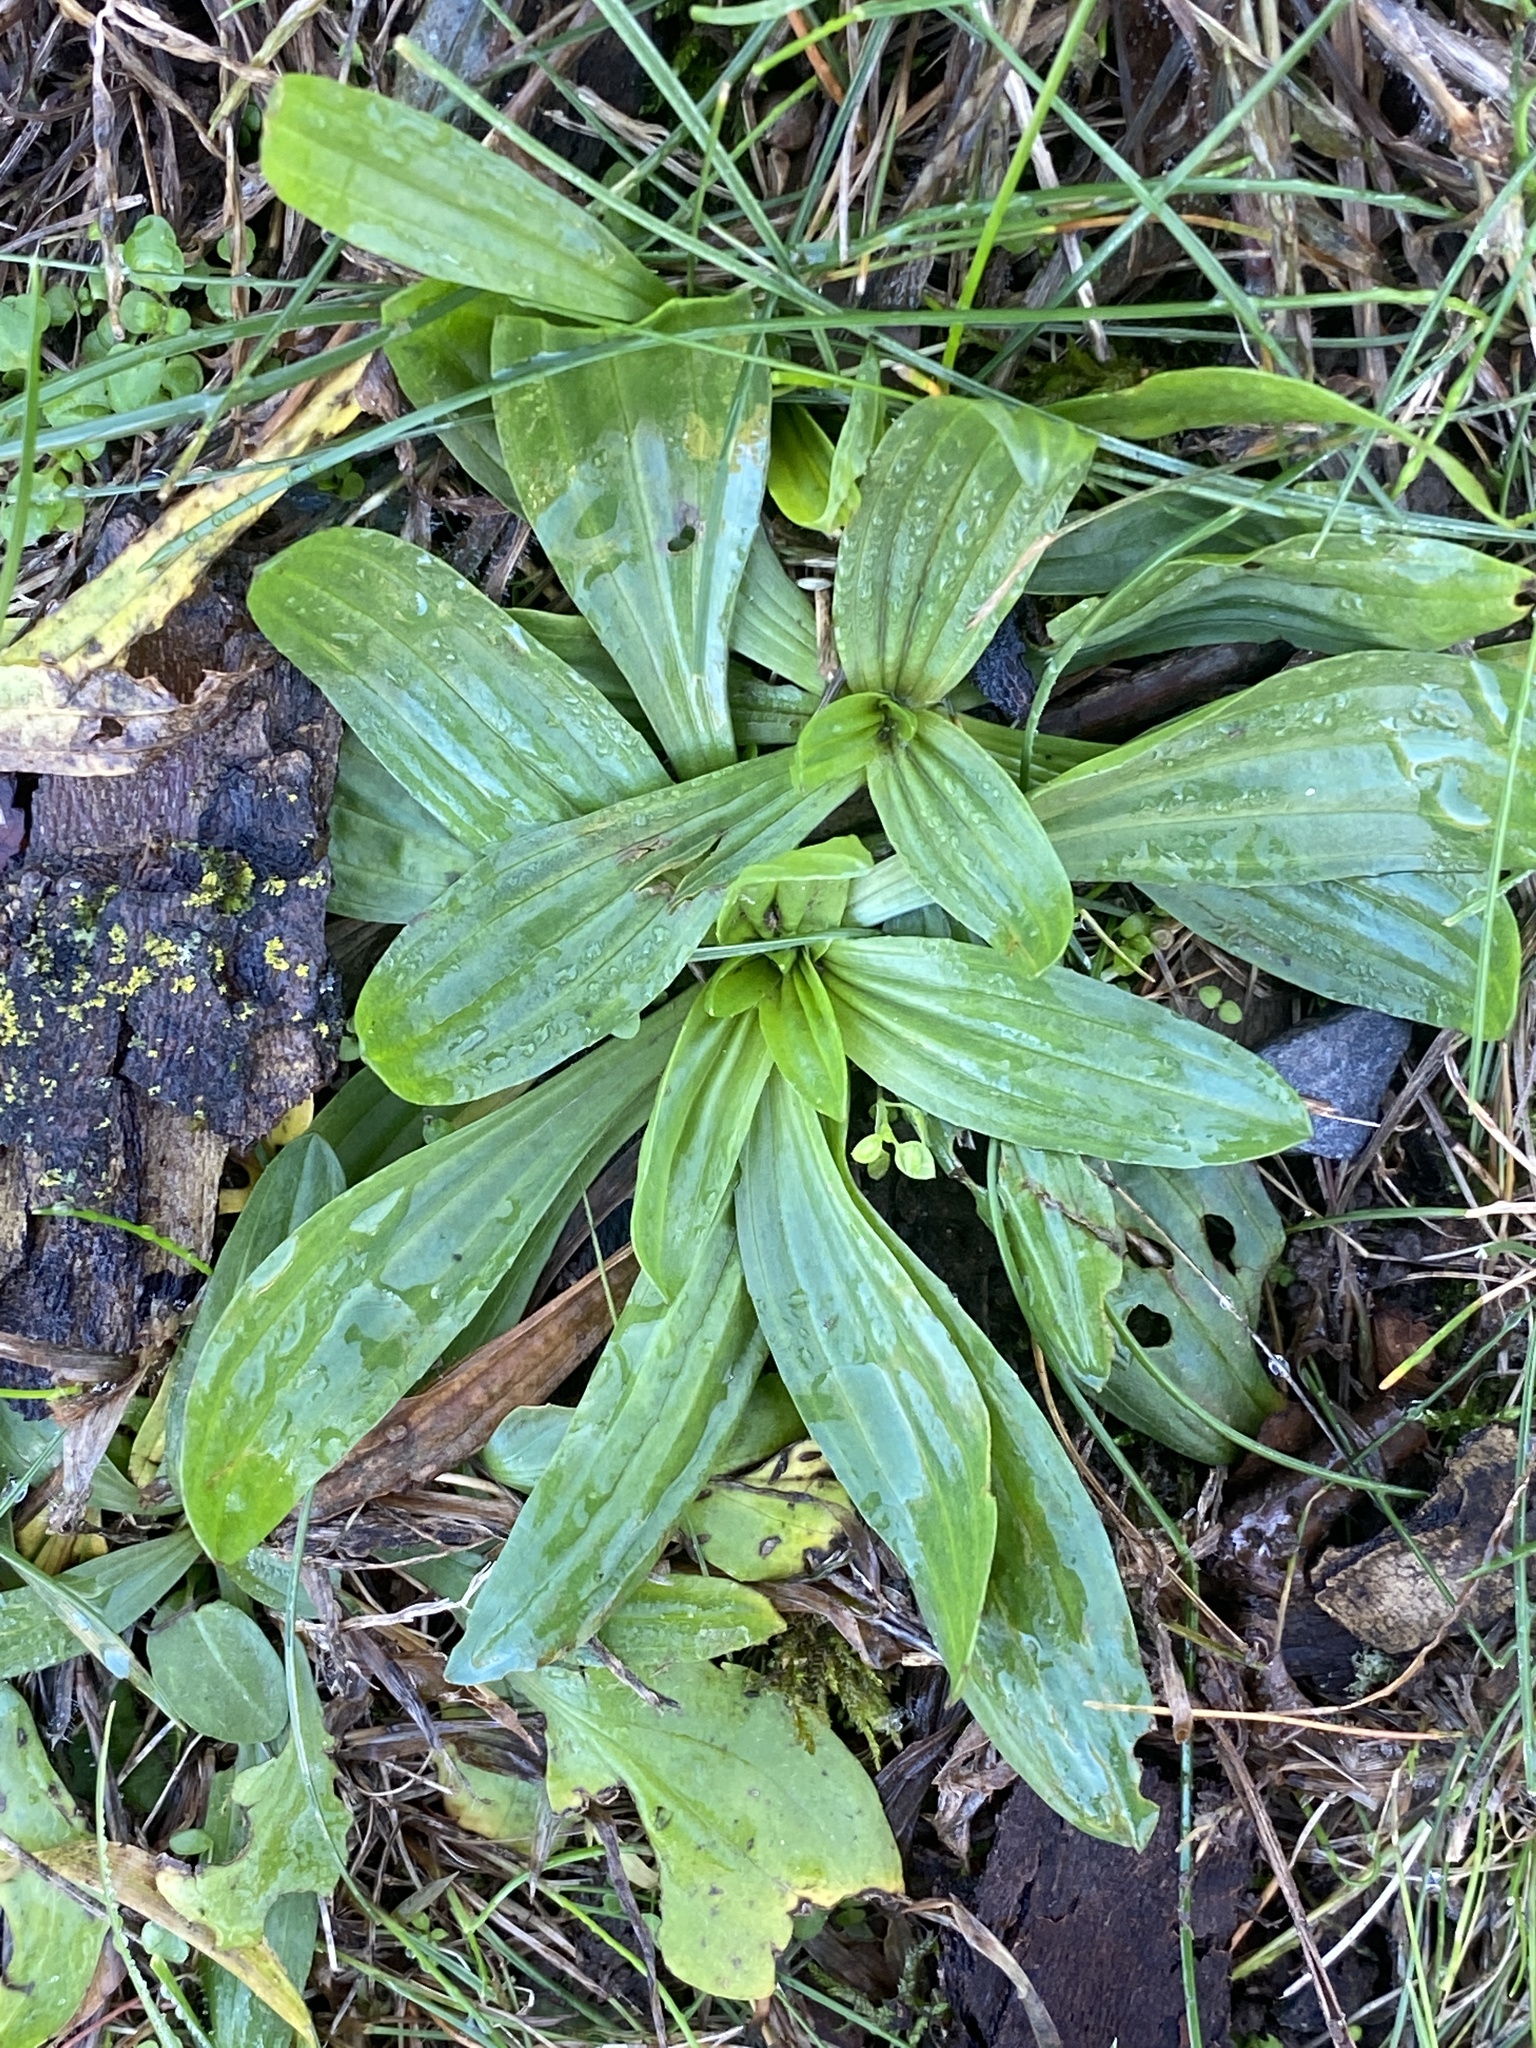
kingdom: Plantae
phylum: Tracheophyta
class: Magnoliopsida
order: Lamiales
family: Plantaginaceae
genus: Plantago
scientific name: Plantago lanceolata
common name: Ribwort plantain
